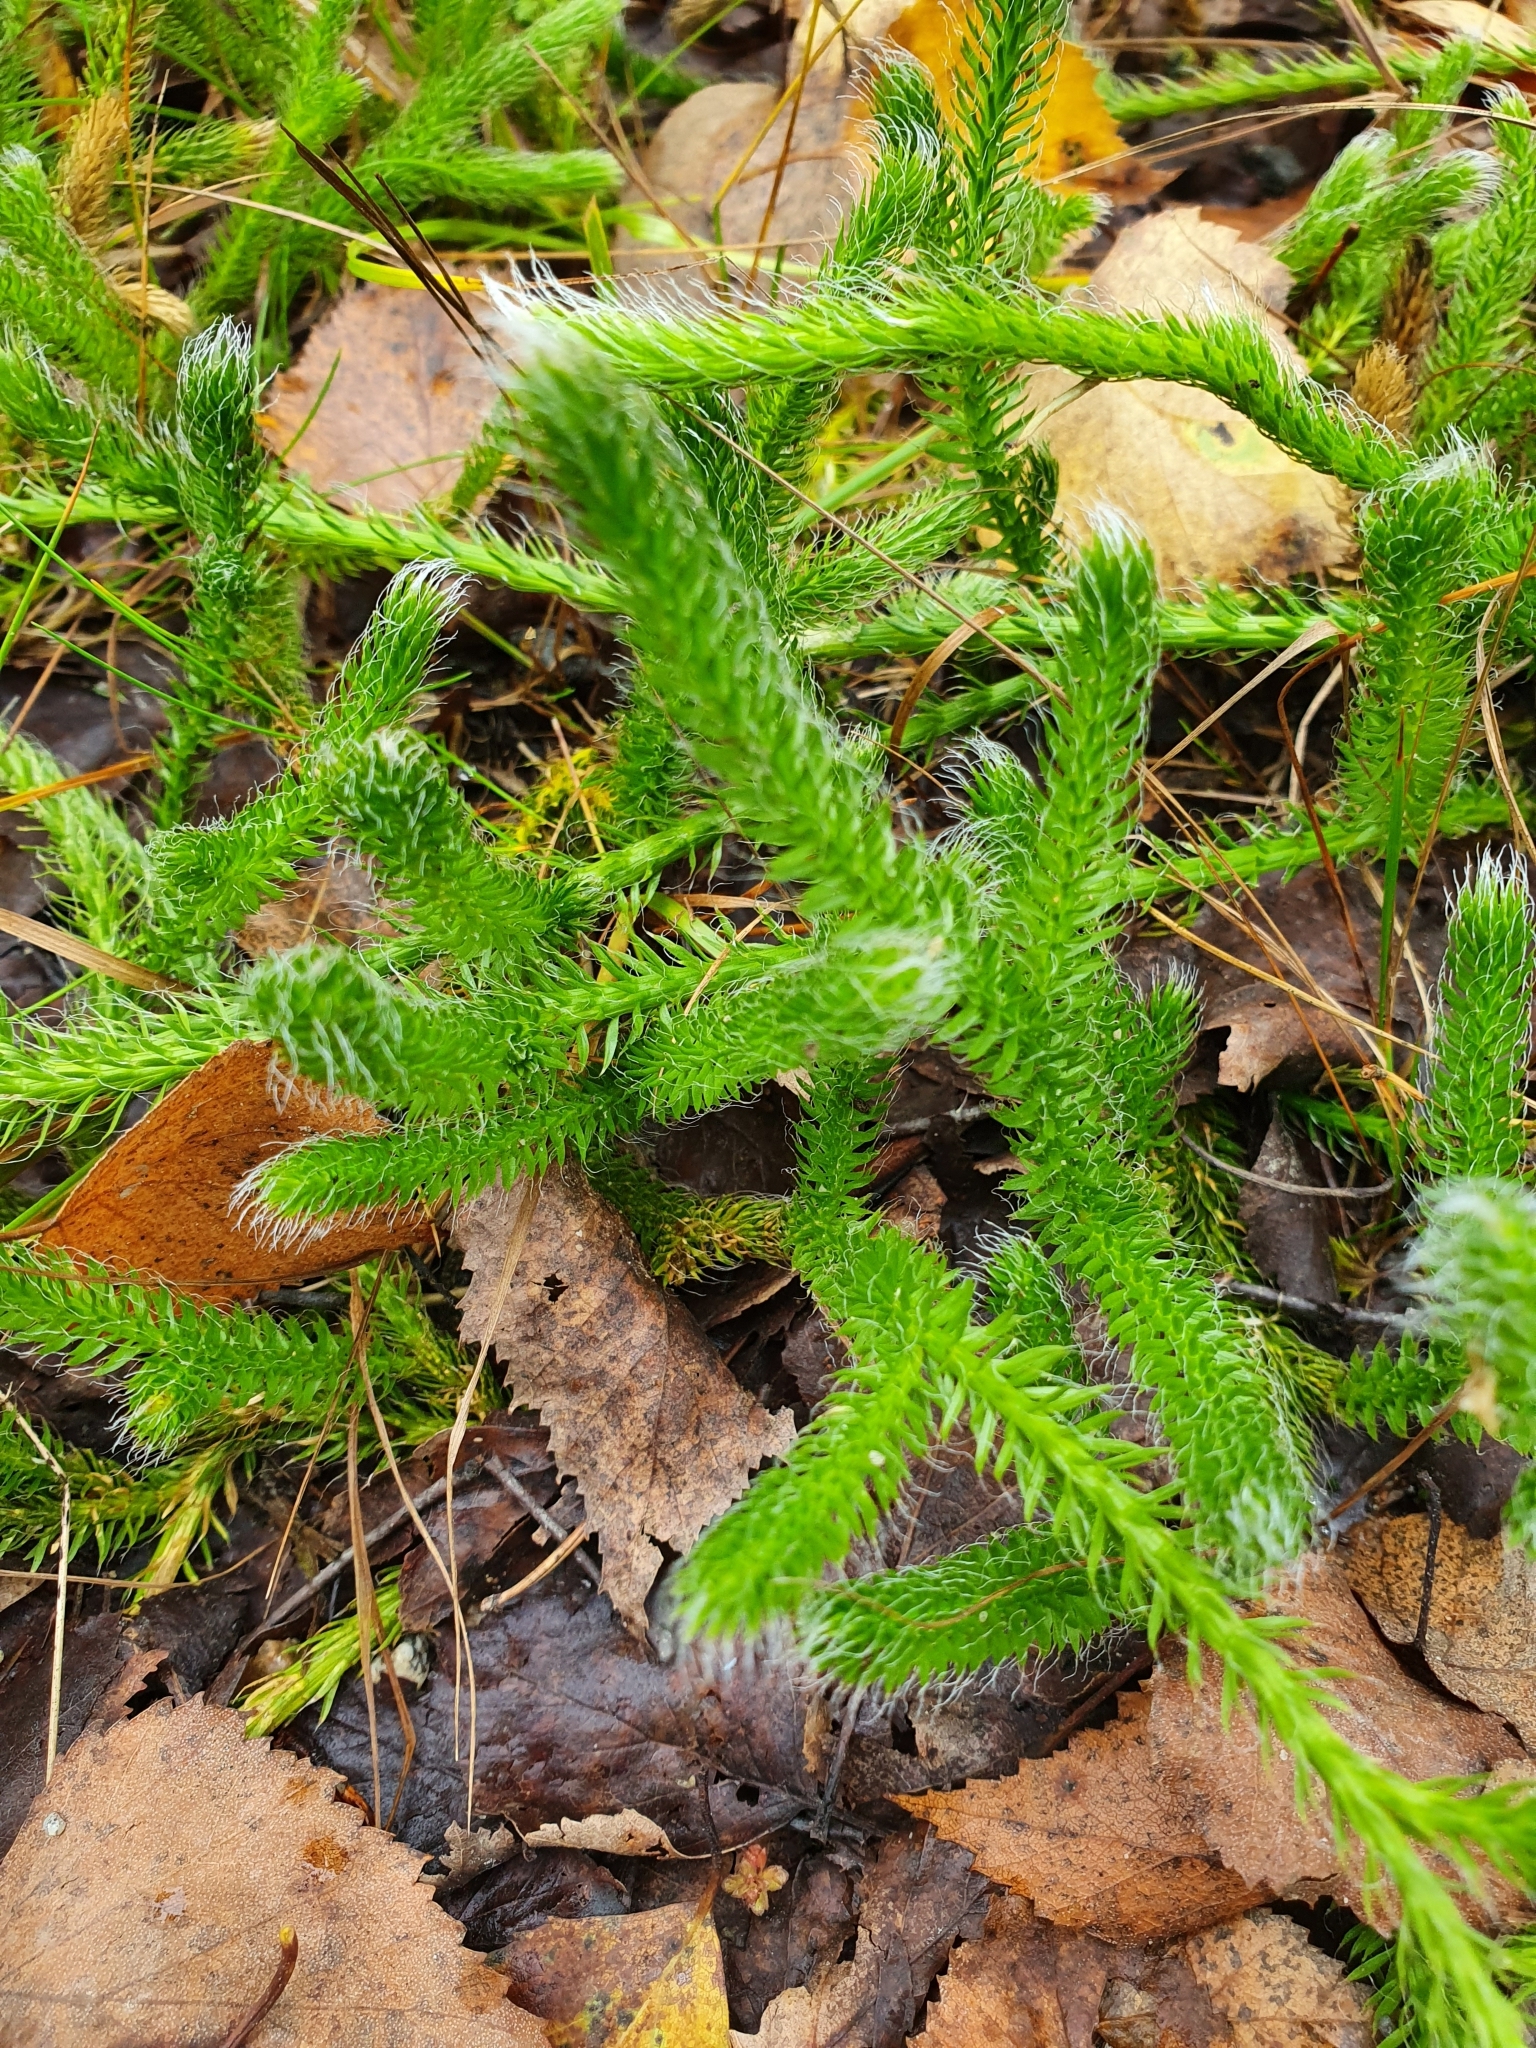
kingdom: Plantae
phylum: Tracheophyta
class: Lycopodiopsida
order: Lycopodiales
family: Lycopodiaceae
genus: Lycopodium
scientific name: Lycopodium clavatum
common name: Stag's-horn clubmoss
